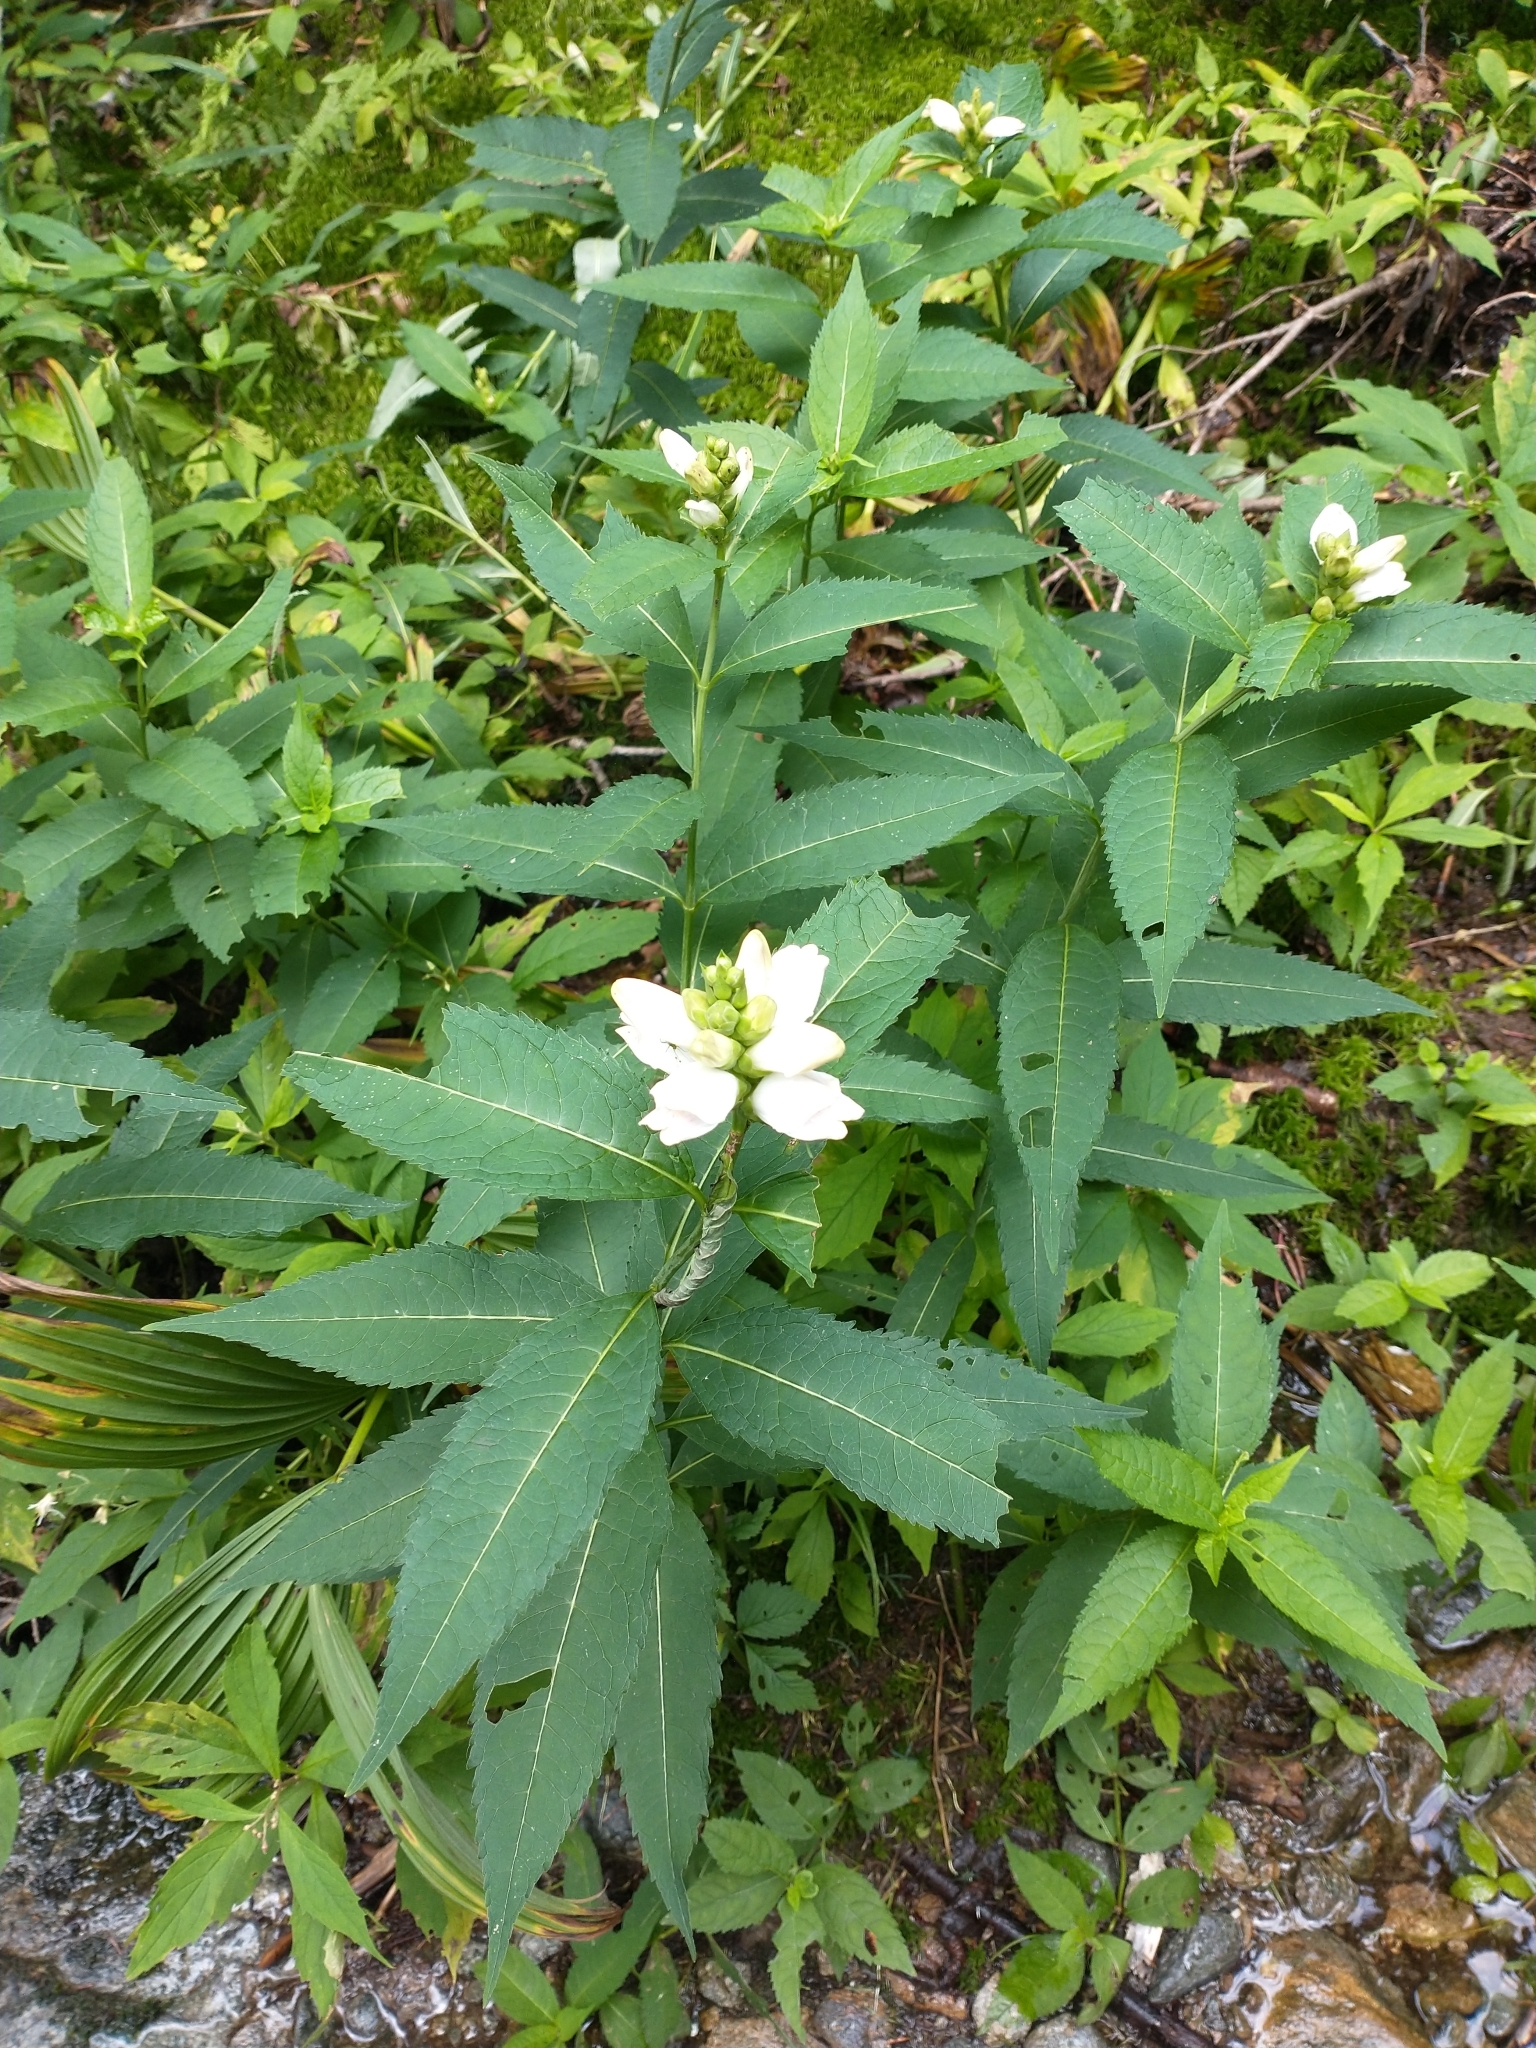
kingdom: Plantae
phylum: Tracheophyta
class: Magnoliopsida
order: Lamiales
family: Plantaginaceae
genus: Chelone
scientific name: Chelone glabra
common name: Snakehead
